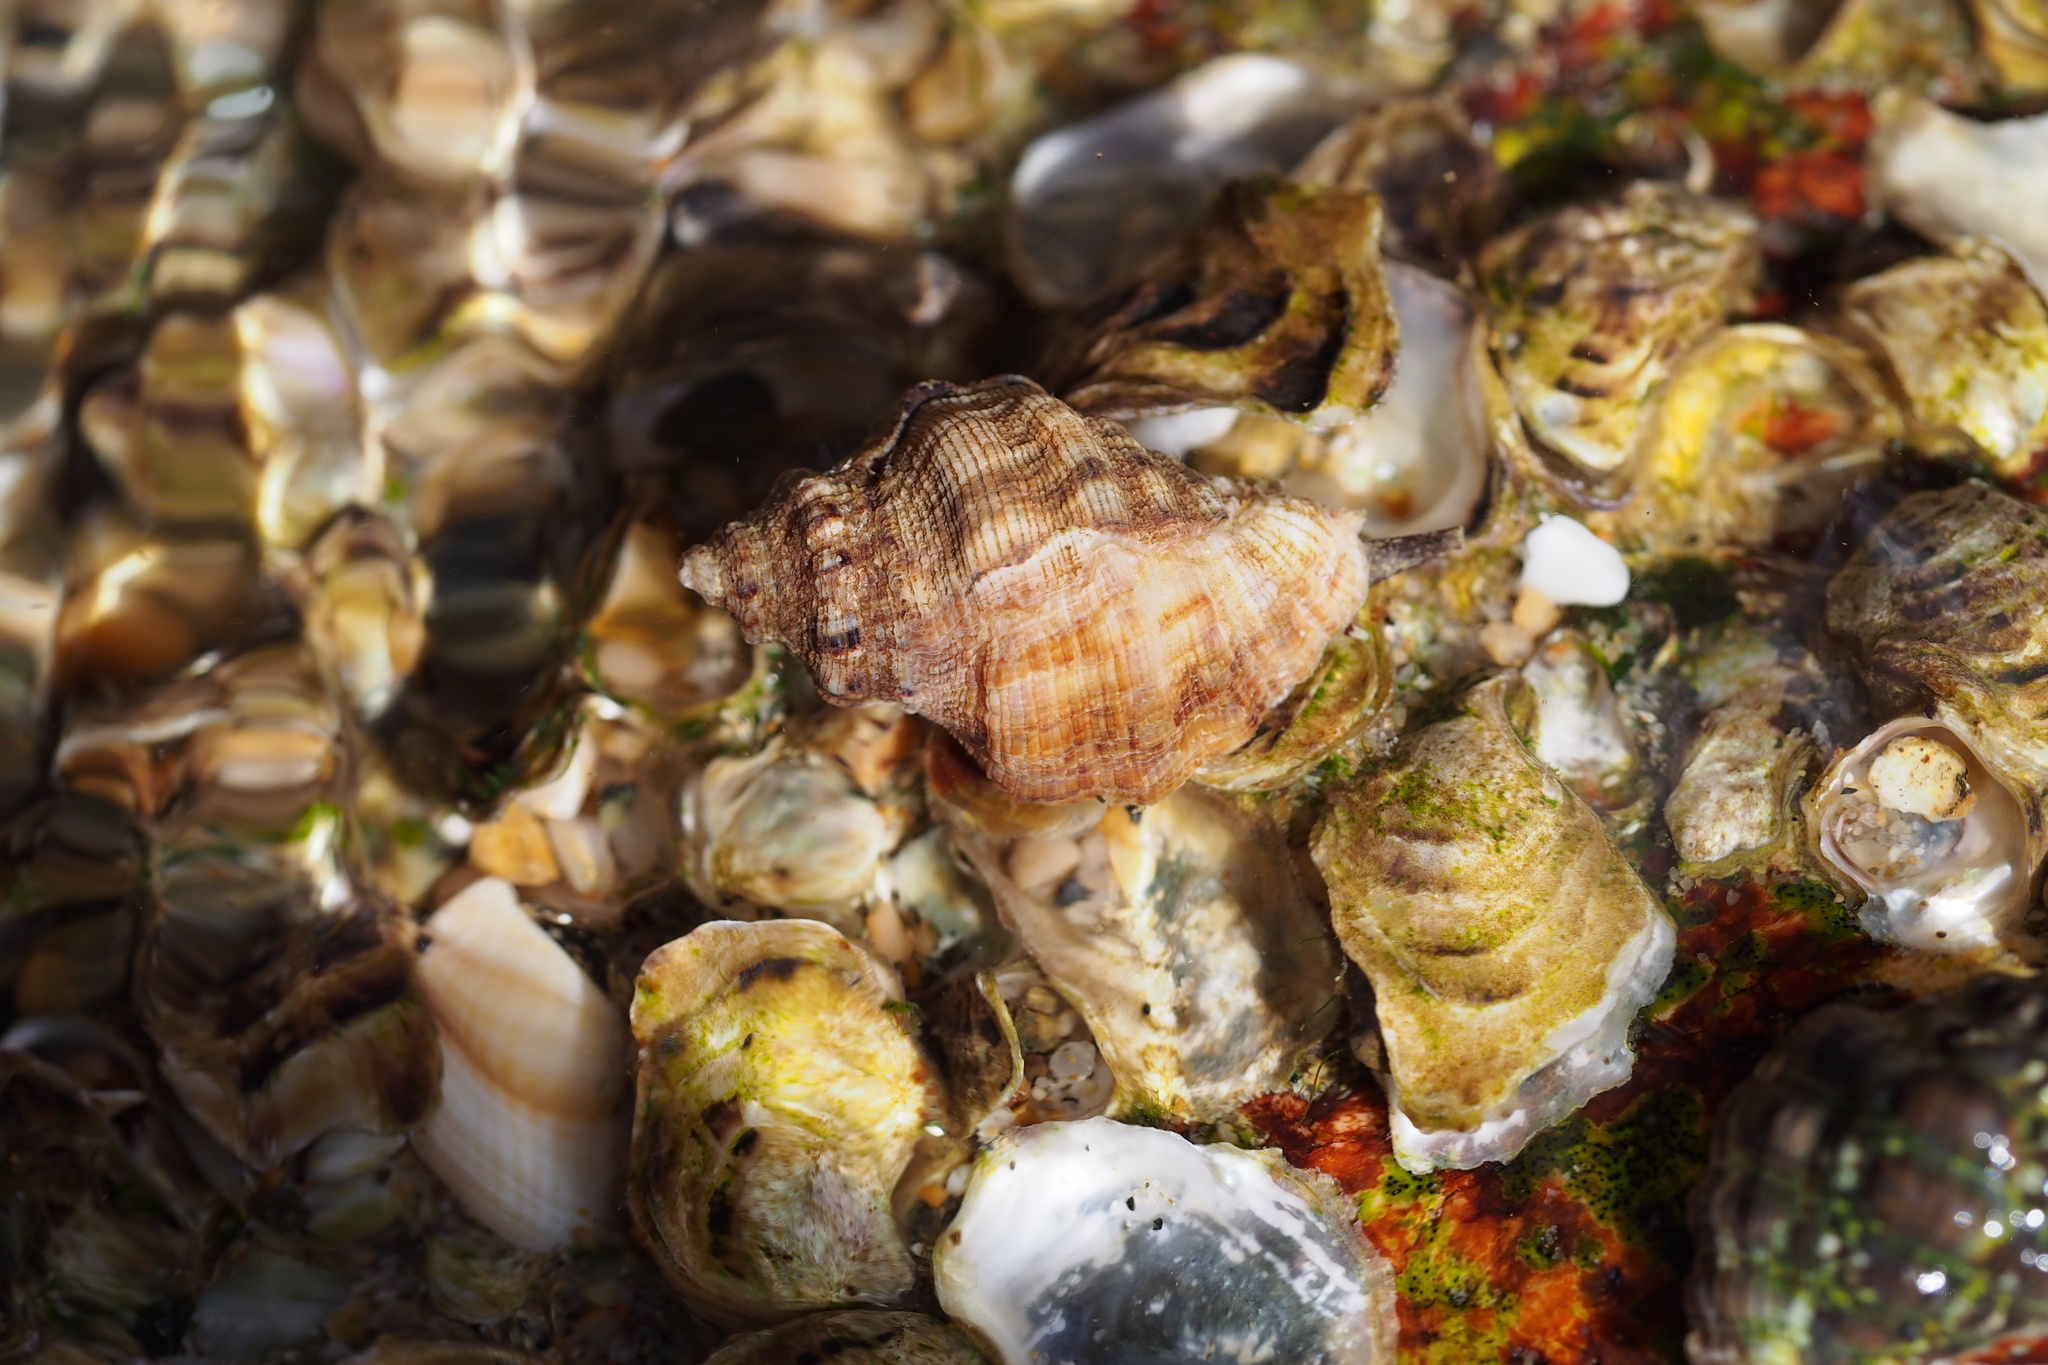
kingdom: Animalia
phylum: Mollusca
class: Gastropoda
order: Neogastropoda
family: Muricidae
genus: Reishia
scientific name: Reishia luteostoma
